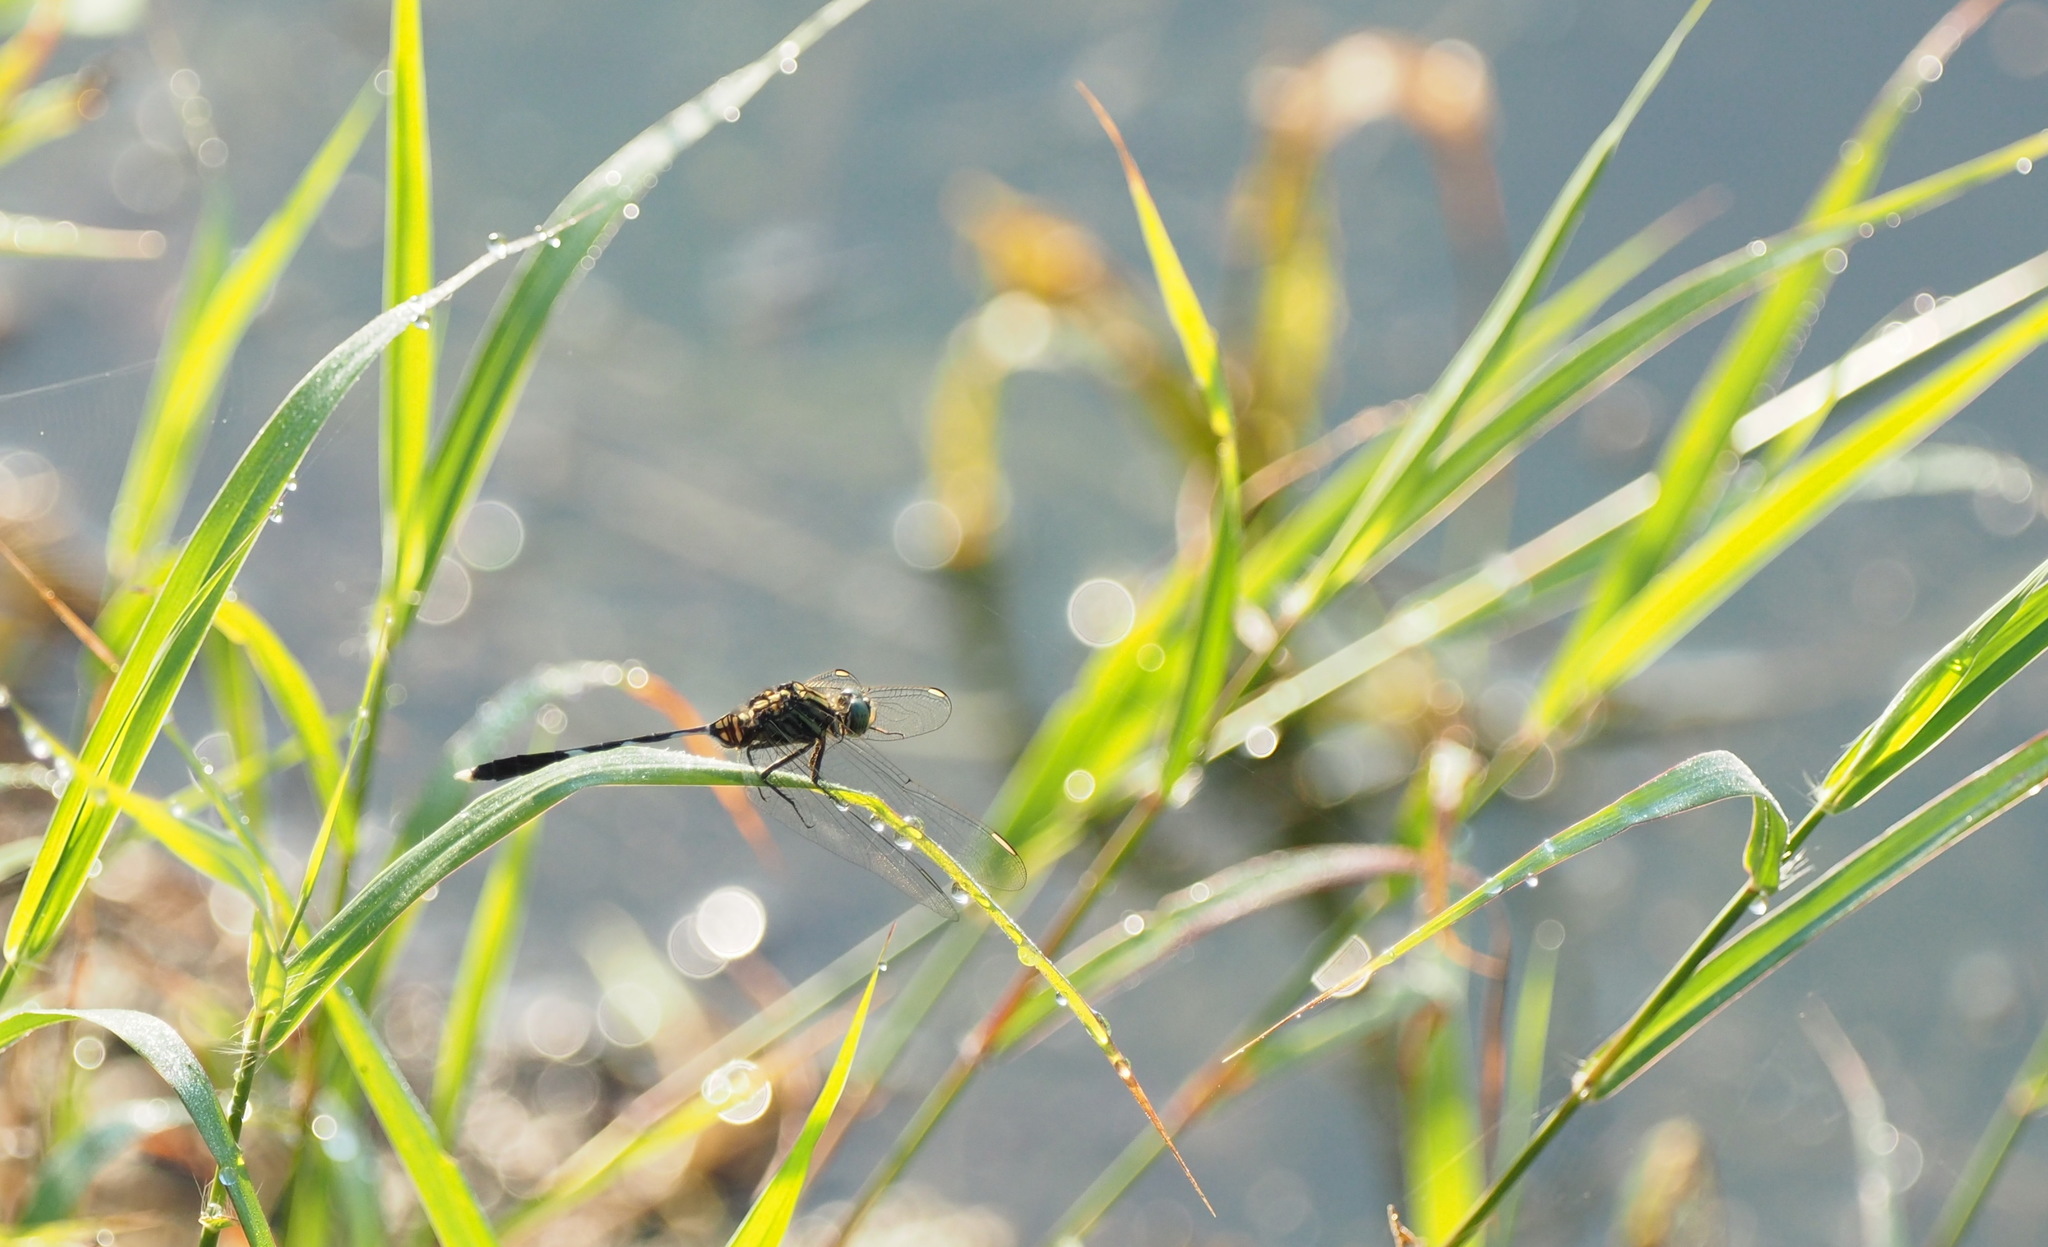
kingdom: Animalia
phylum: Arthropoda
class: Insecta
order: Odonata
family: Libellulidae
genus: Orthetrum
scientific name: Orthetrum sabina
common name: Slender skimmer
